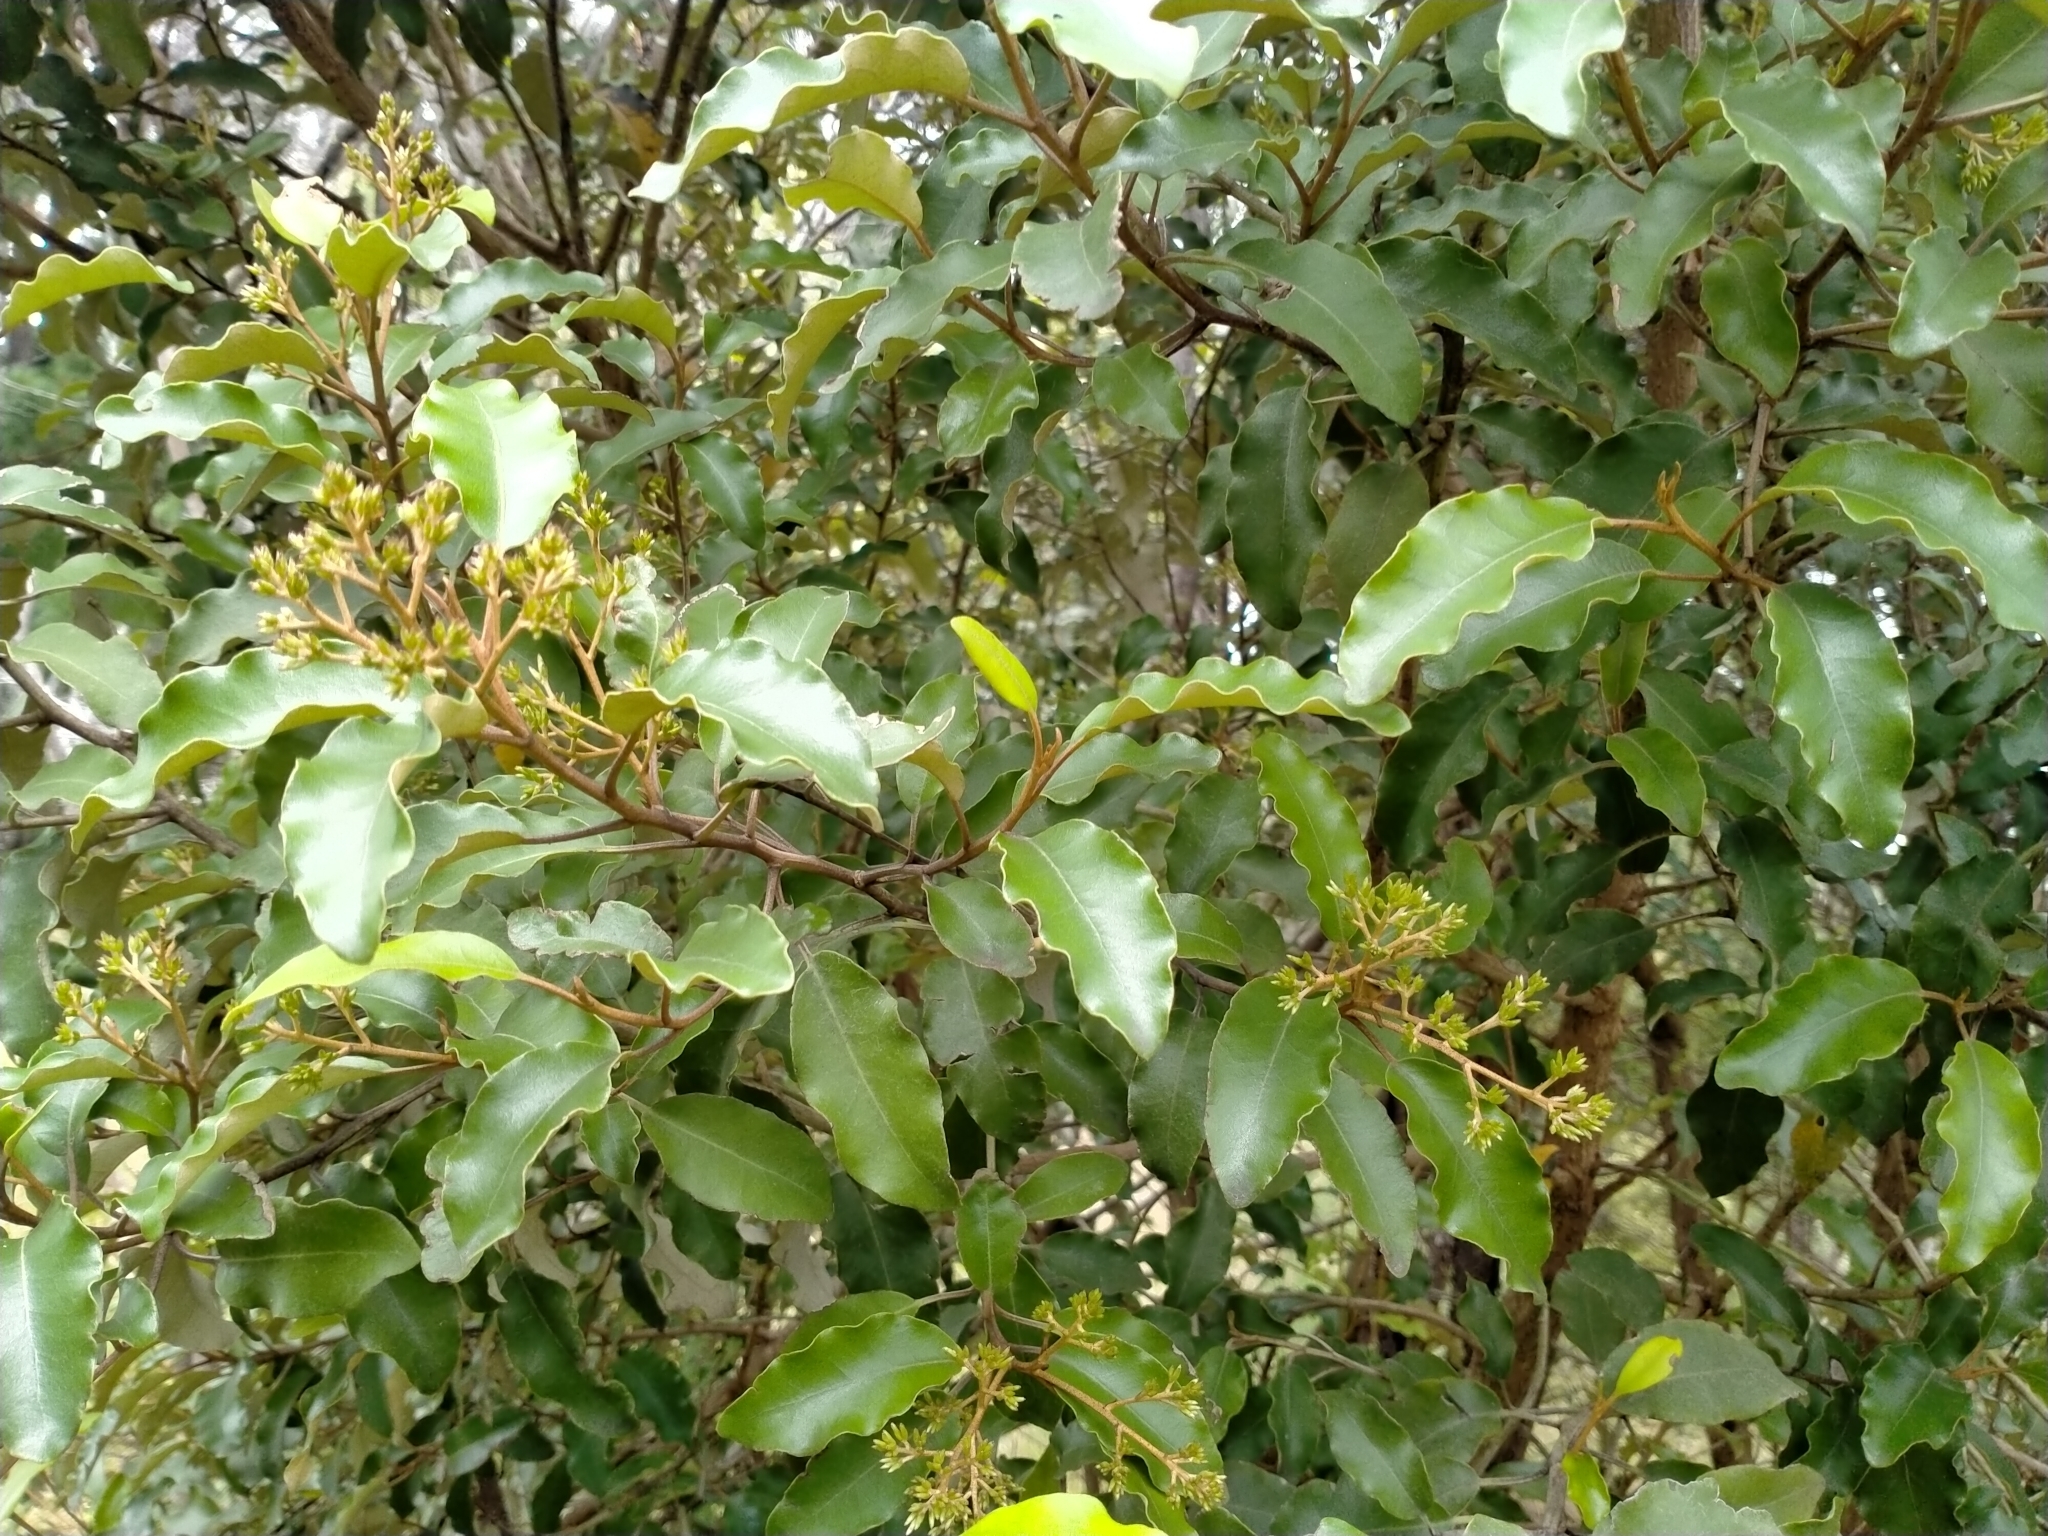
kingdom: Plantae
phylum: Tracheophyta
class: Magnoliopsida
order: Asterales
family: Asteraceae
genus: Olearia
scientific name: Olearia paniculata
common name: Akiraho
